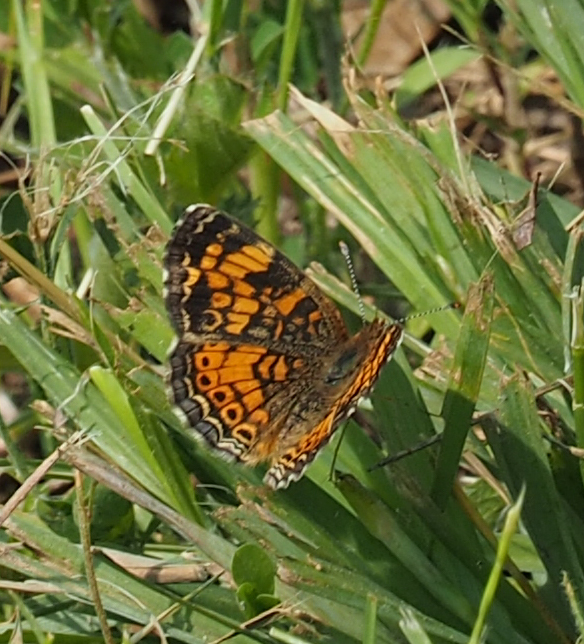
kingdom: Animalia
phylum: Arthropoda
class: Insecta
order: Lepidoptera
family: Nymphalidae
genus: Phyciodes
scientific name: Phyciodes tharos
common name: Pearl crescent
